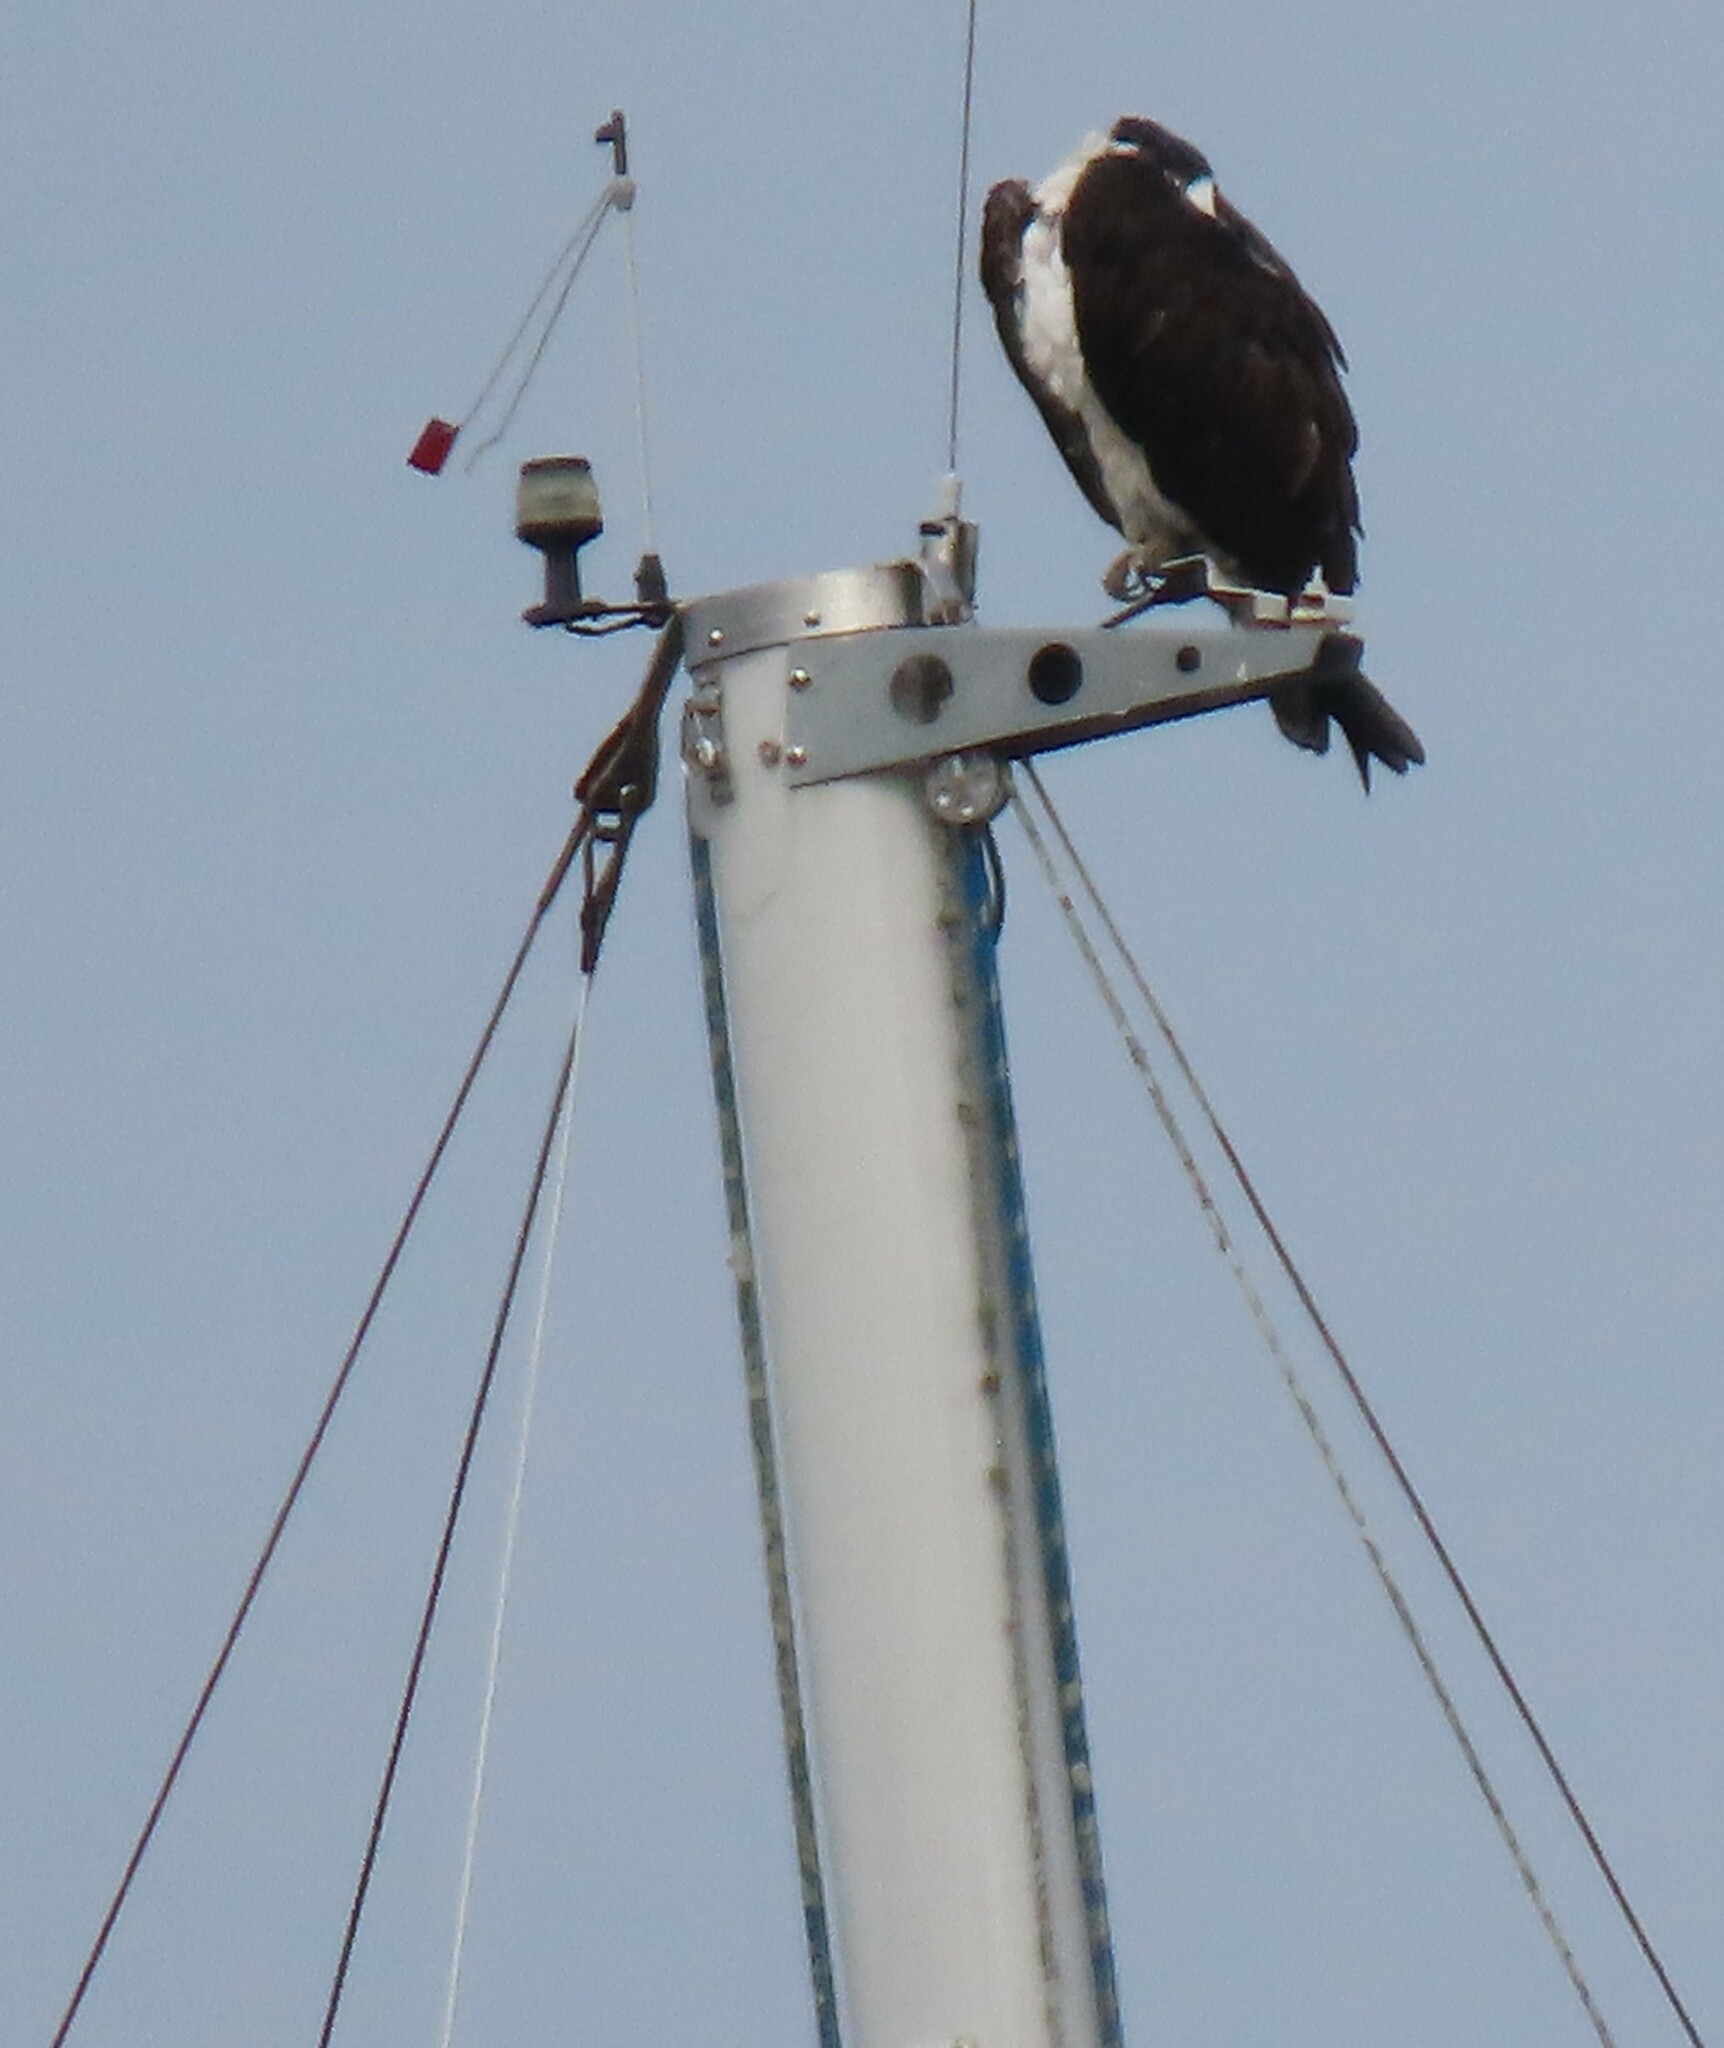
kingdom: Animalia
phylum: Chordata
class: Aves
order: Accipitriformes
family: Pandionidae
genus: Pandion
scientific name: Pandion haliaetus
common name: Osprey
